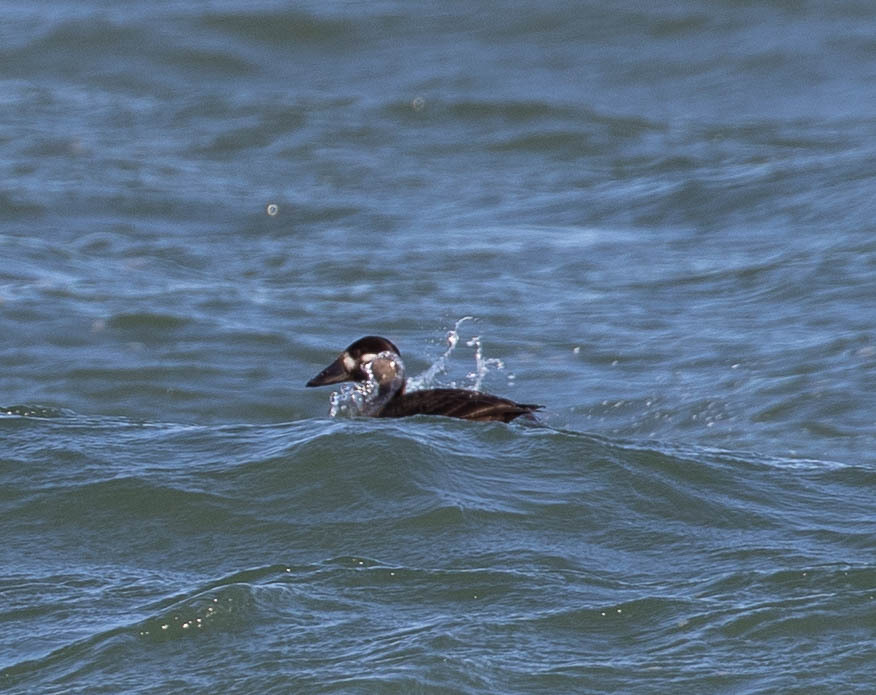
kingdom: Animalia
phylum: Chordata
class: Aves
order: Anseriformes
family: Anatidae
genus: Melanitta
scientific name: Melanitta perspicillata
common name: Surf scoter
